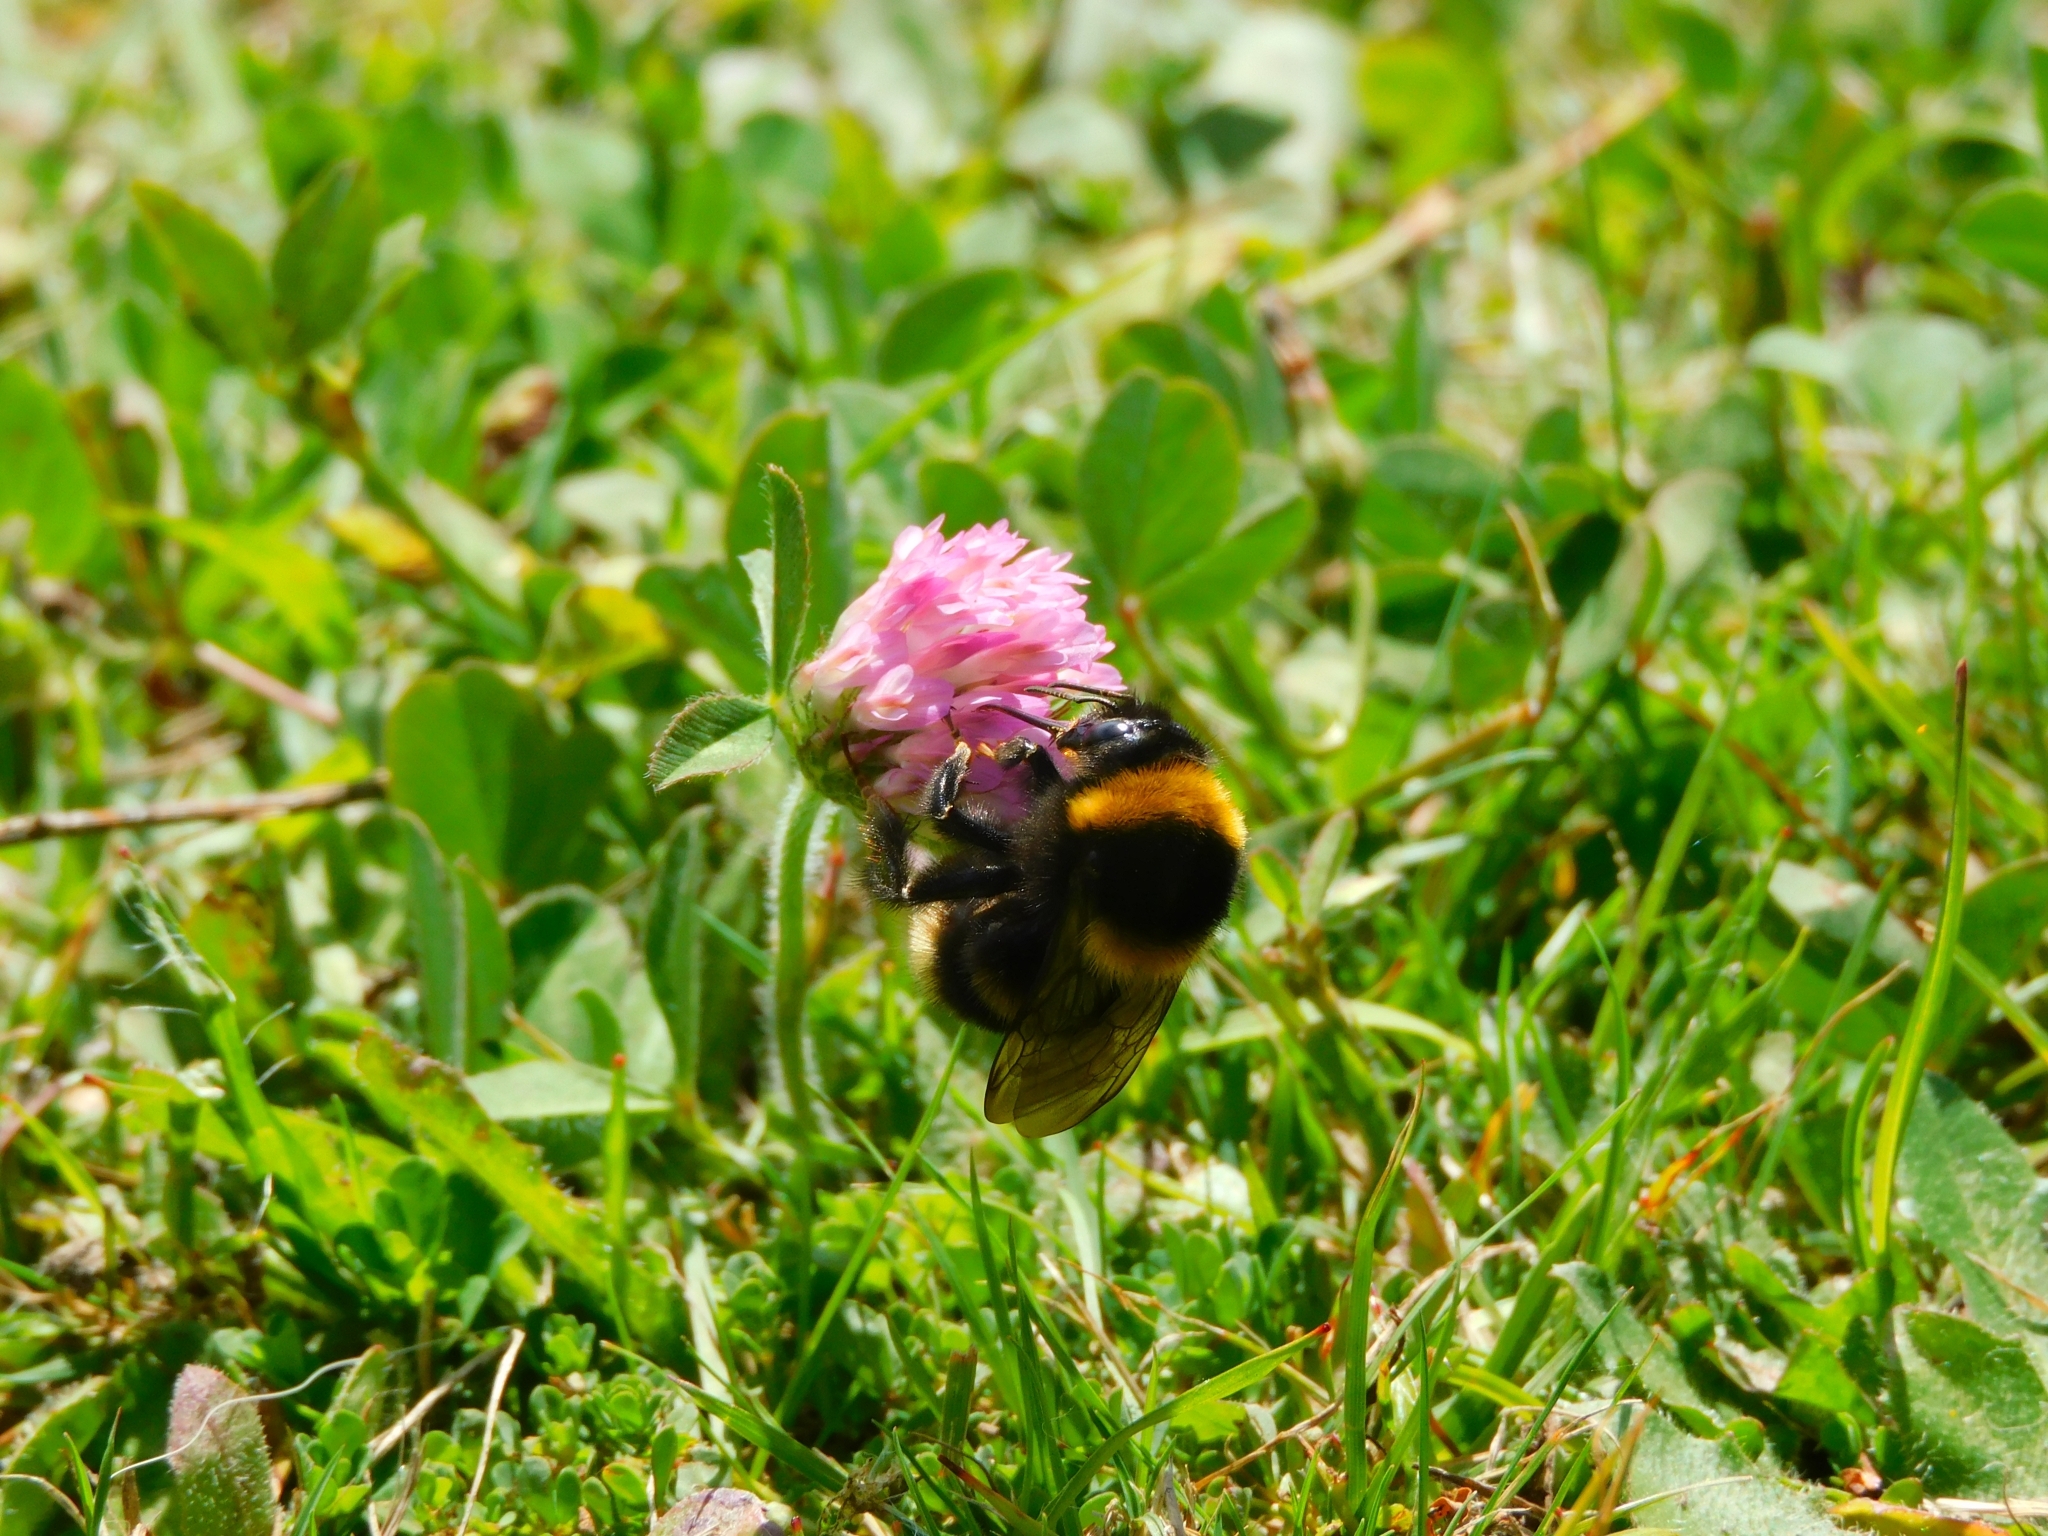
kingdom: Animalia
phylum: Arthropoda
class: Insecta
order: Hymenoptera
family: Apidae
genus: Bombus
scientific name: Bombus ruderatus
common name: Large garden bumblebee
